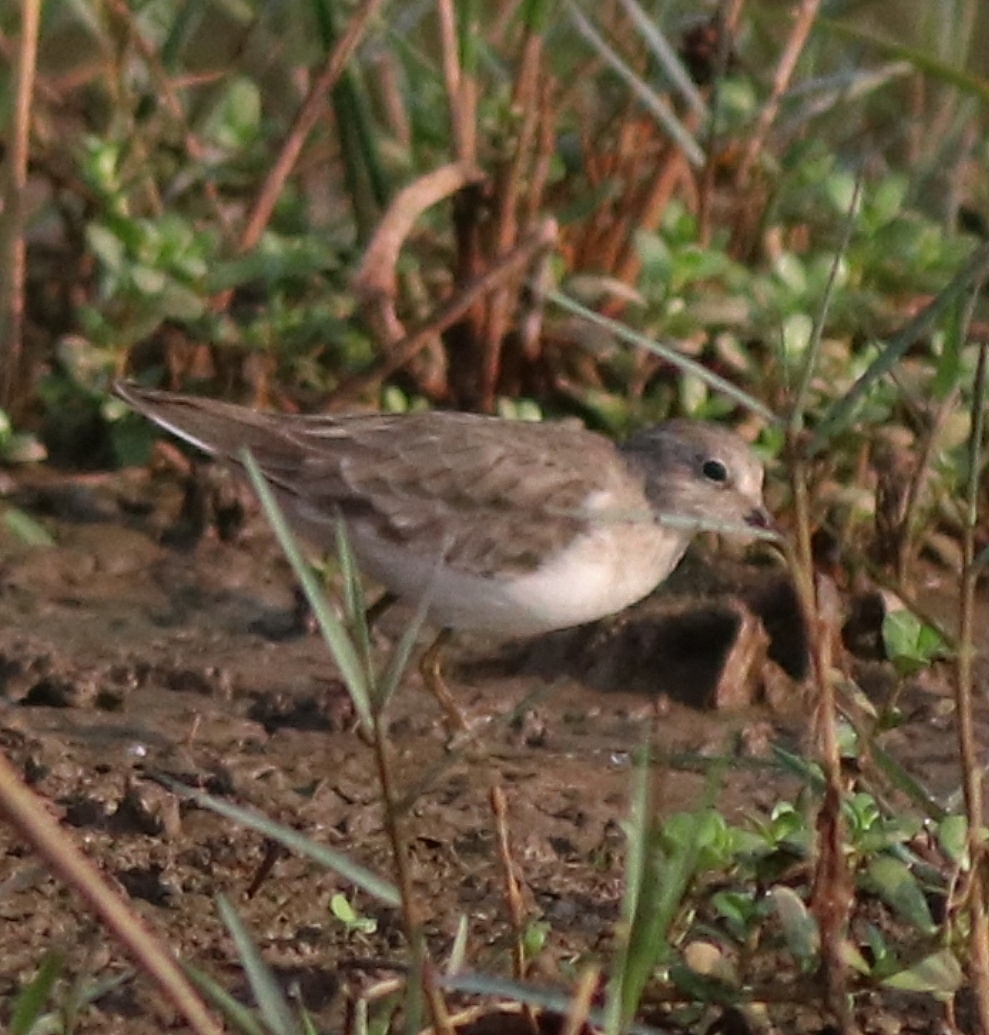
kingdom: Animalia
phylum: Chordata
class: Aves
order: Charadriiformes
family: Scolopacidae
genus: Calidris
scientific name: Calidris temminckii
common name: Temminck's stint
